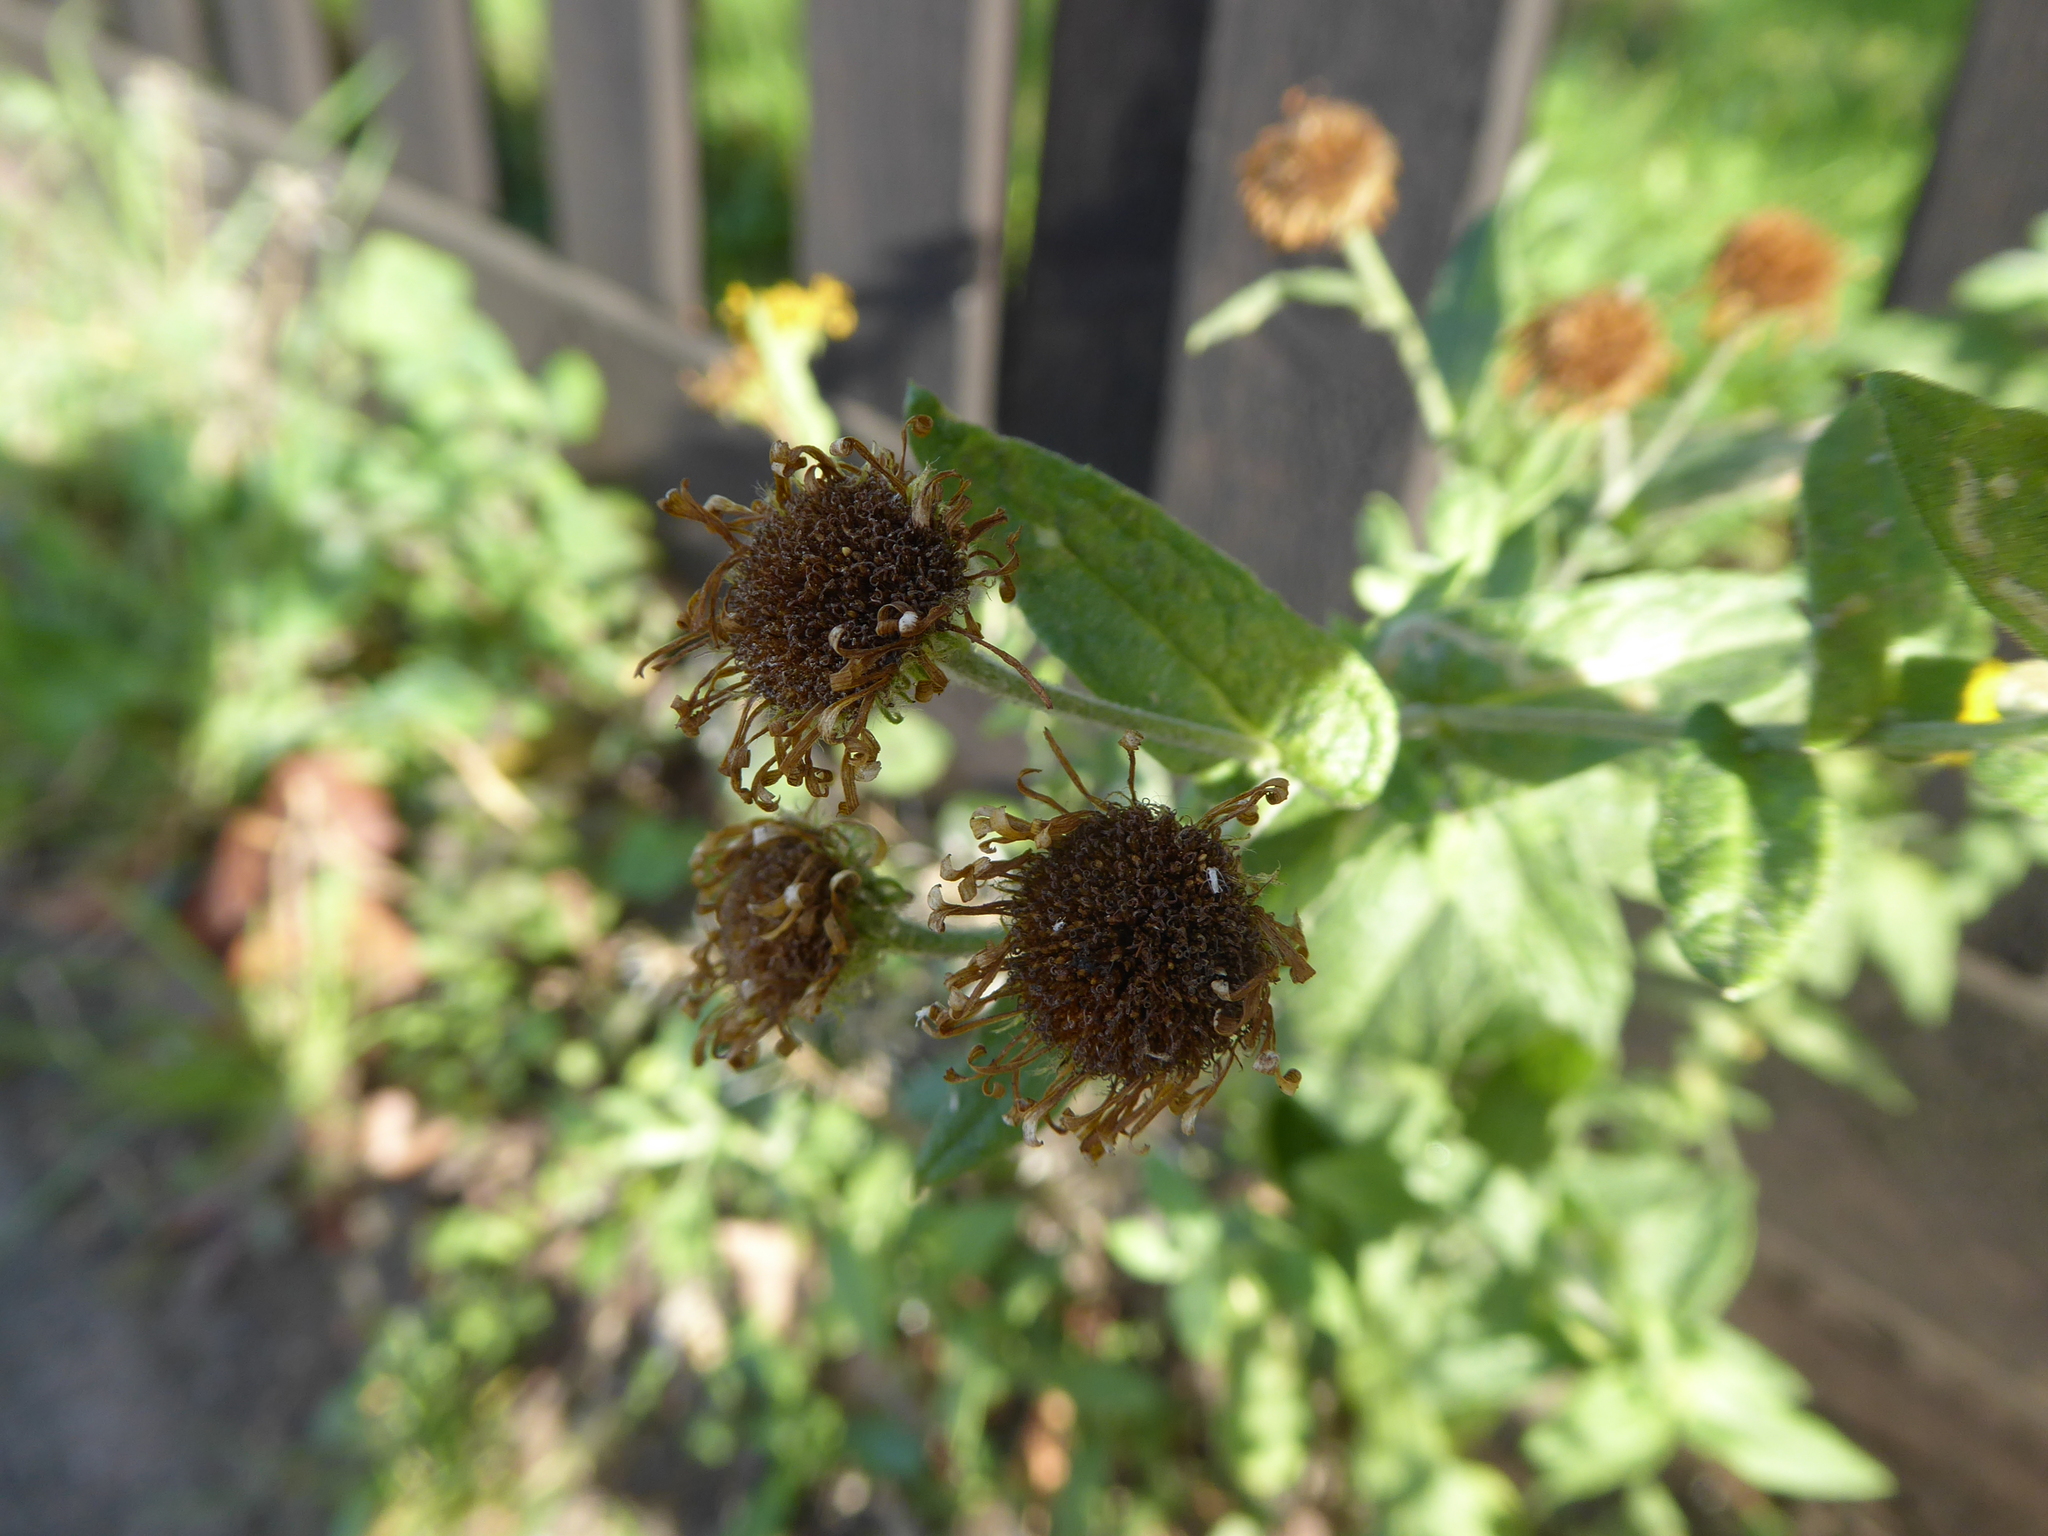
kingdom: Plantae
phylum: Tracheophyta
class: Magnoliopsida
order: Asterales
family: Asteraceae
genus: Pulicaria
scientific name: Pulicaria dysenterica
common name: Common fleabane
